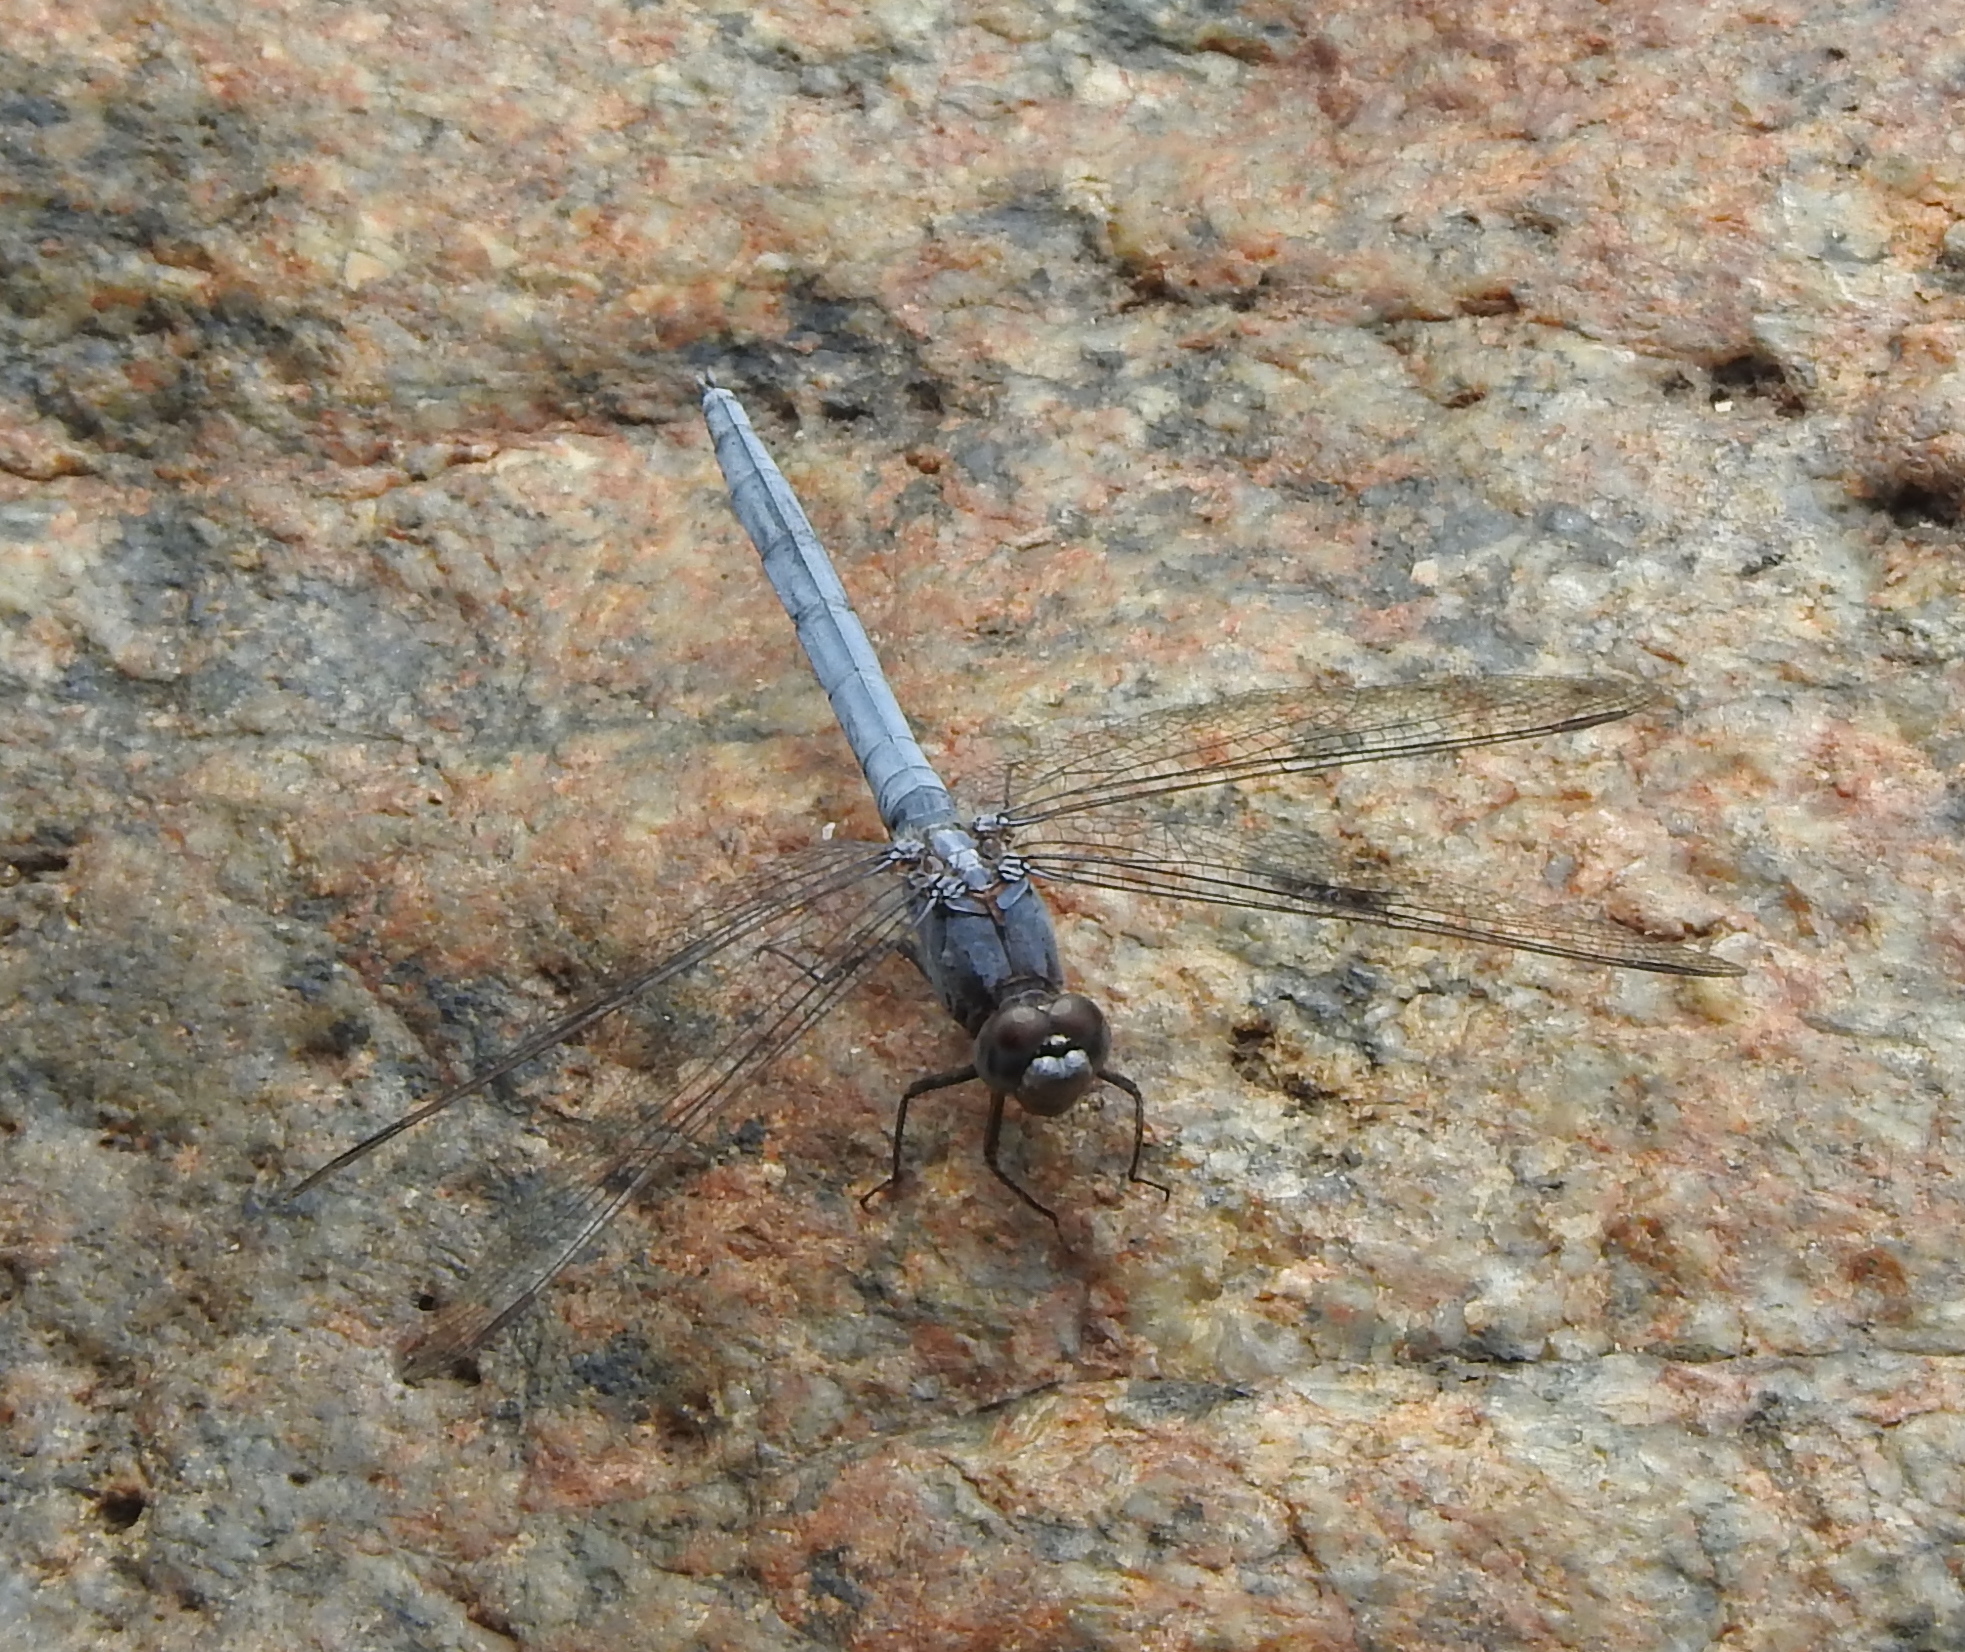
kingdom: Animalia
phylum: Arthropoda
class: Insecta
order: Odonata
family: Libellulidae
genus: Orthetrum
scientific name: Orthetrum taeniolatum
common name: Small skimmer
